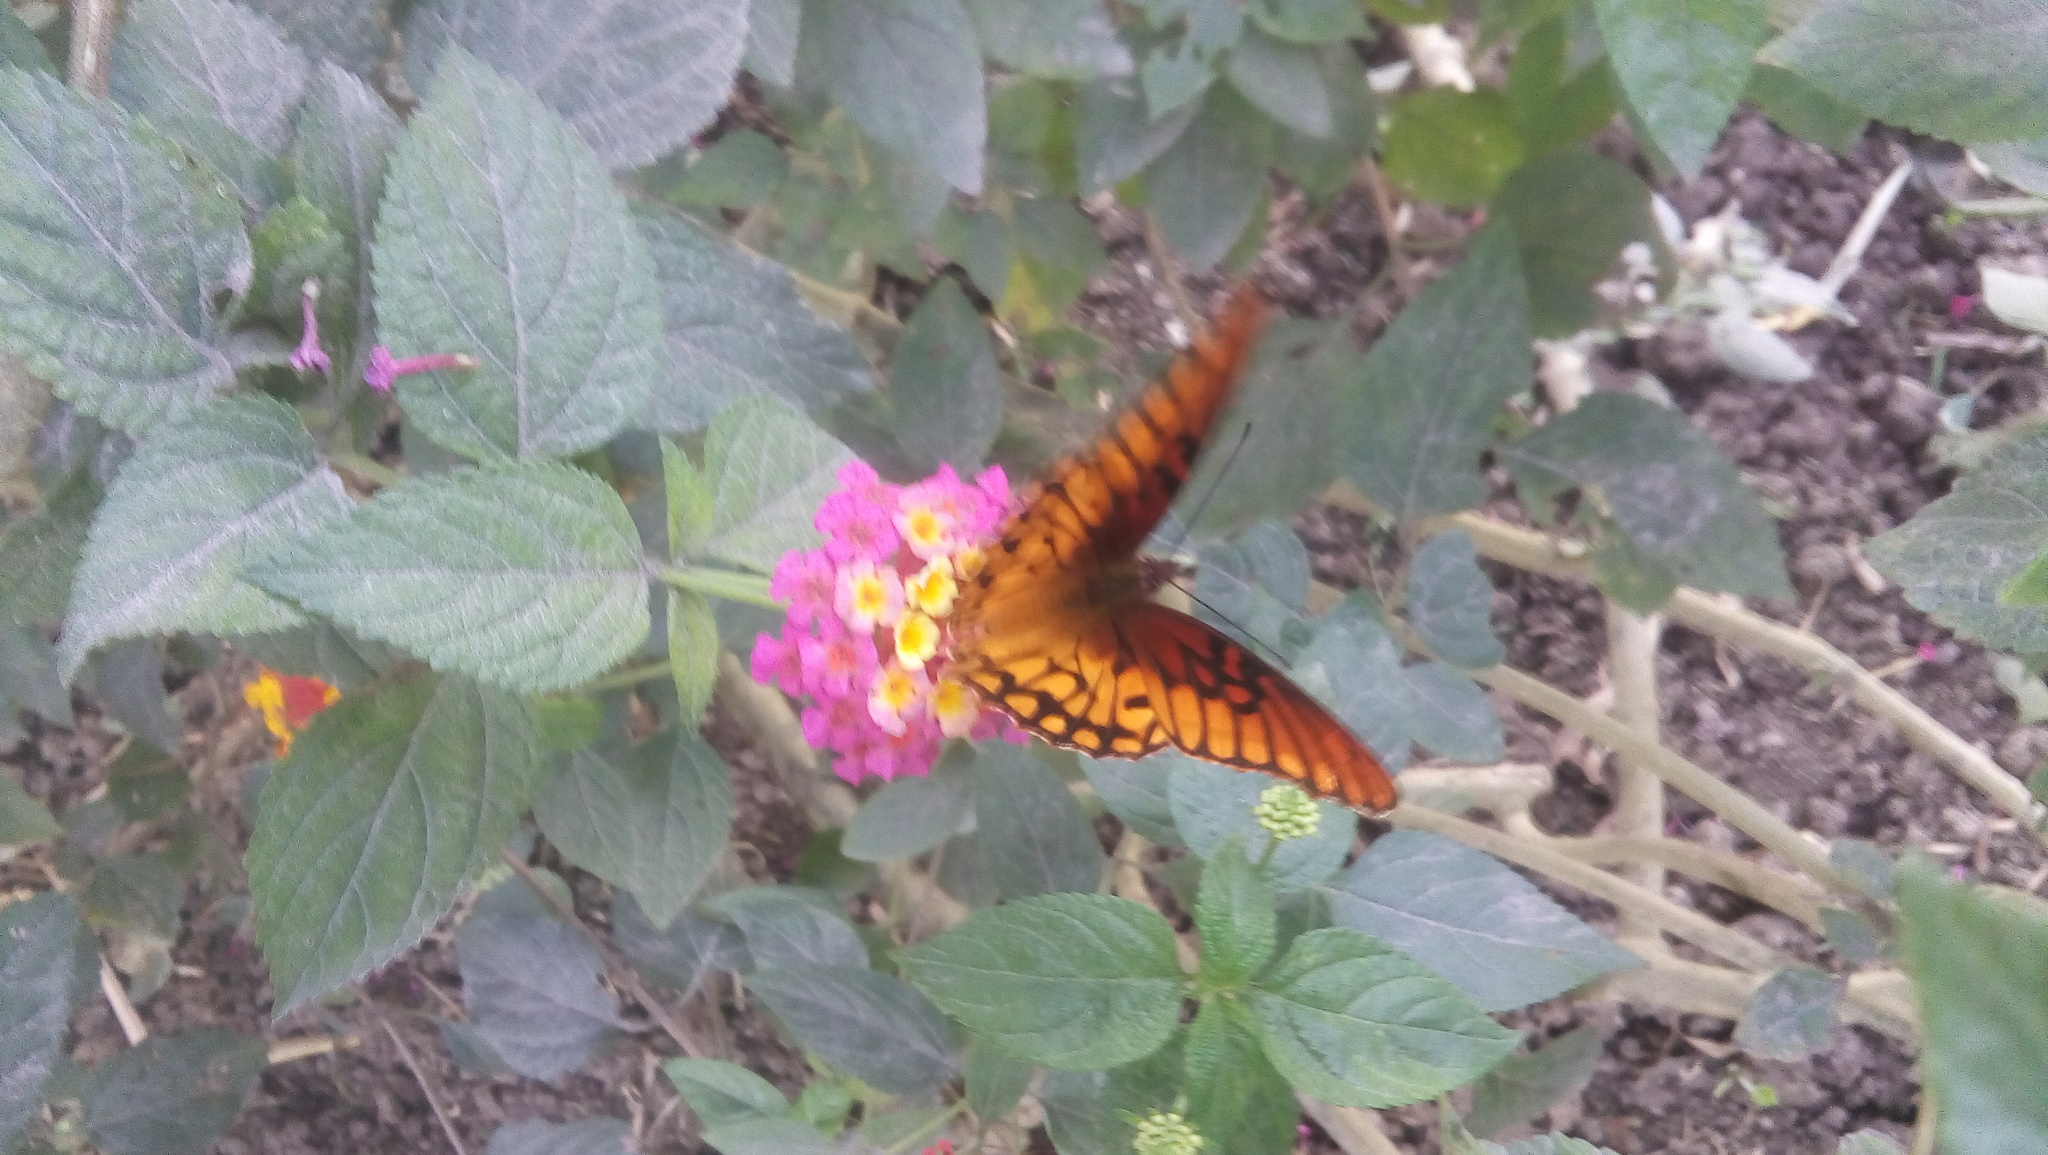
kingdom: Animalia
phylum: Arthropoda
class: Insecta
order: Lepidoptera
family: Nymphalidae
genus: Dione
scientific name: Dione moneta
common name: Mexican silverspot
